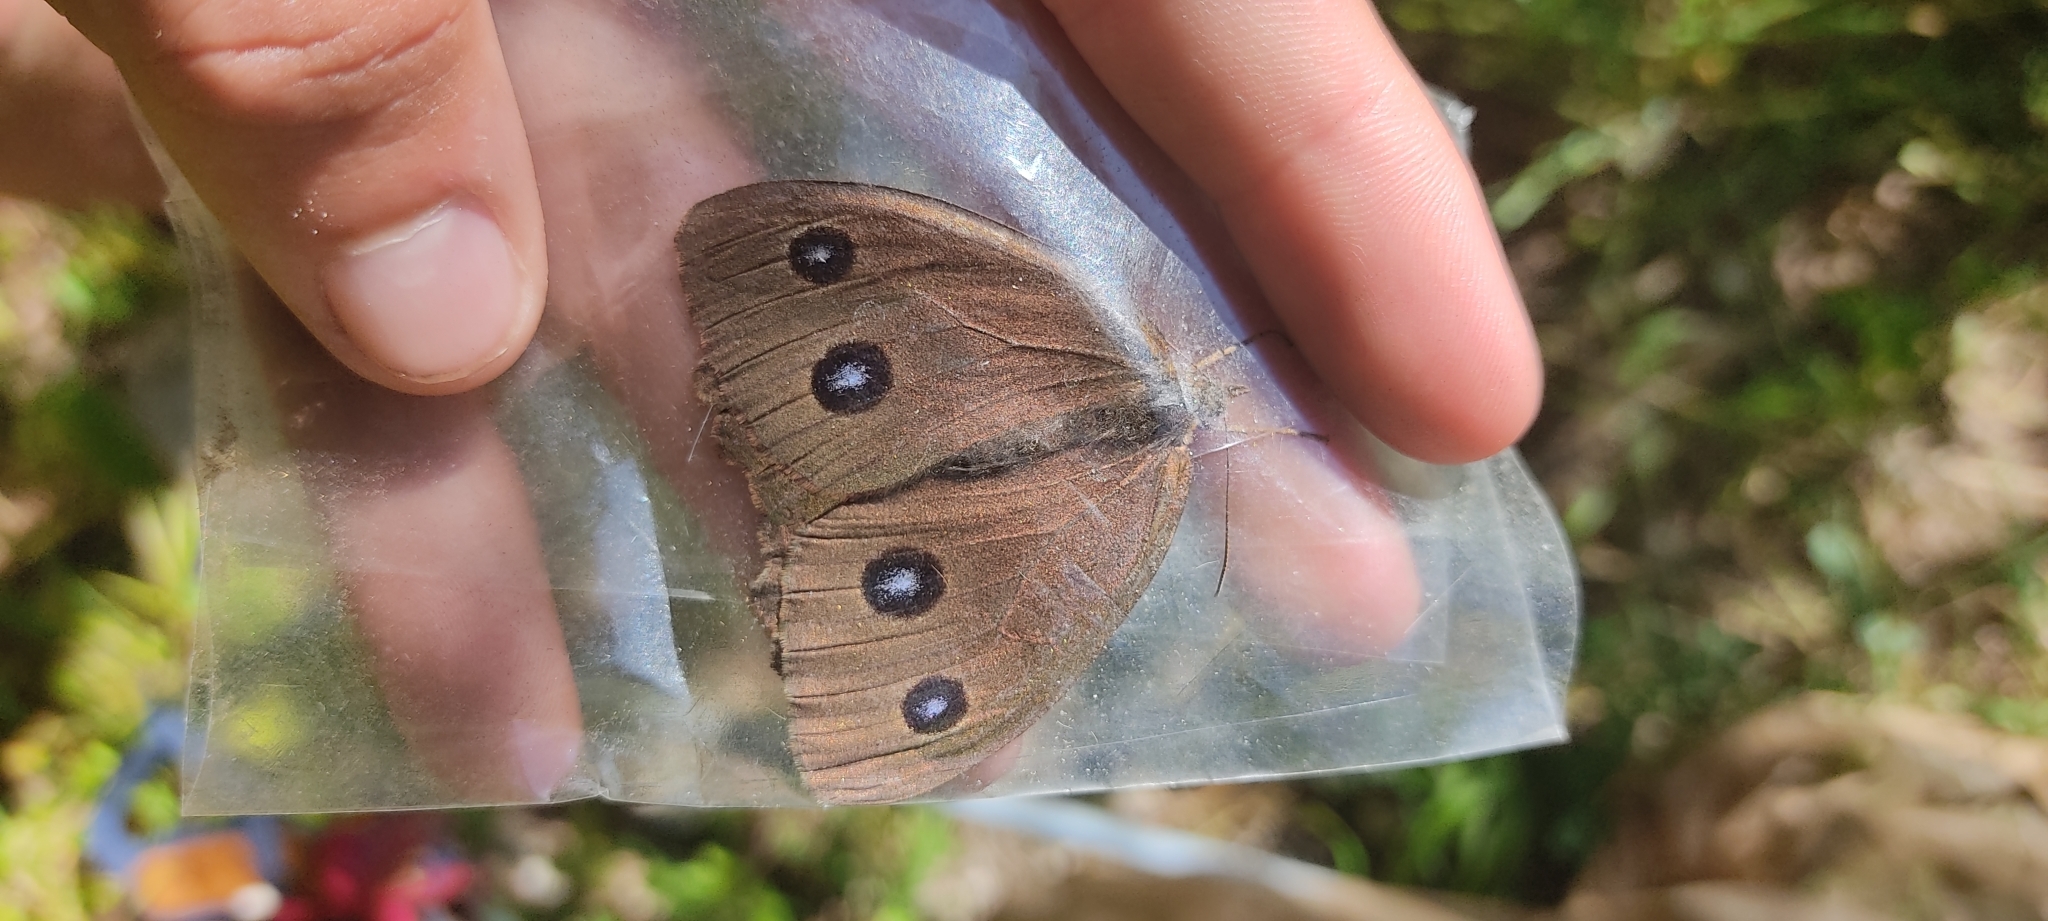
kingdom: Animalia
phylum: Arthropoda
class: Insecta
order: Lepidoptera
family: Nymphalidae
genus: Minois
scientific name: Minois dryas
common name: Dryad
